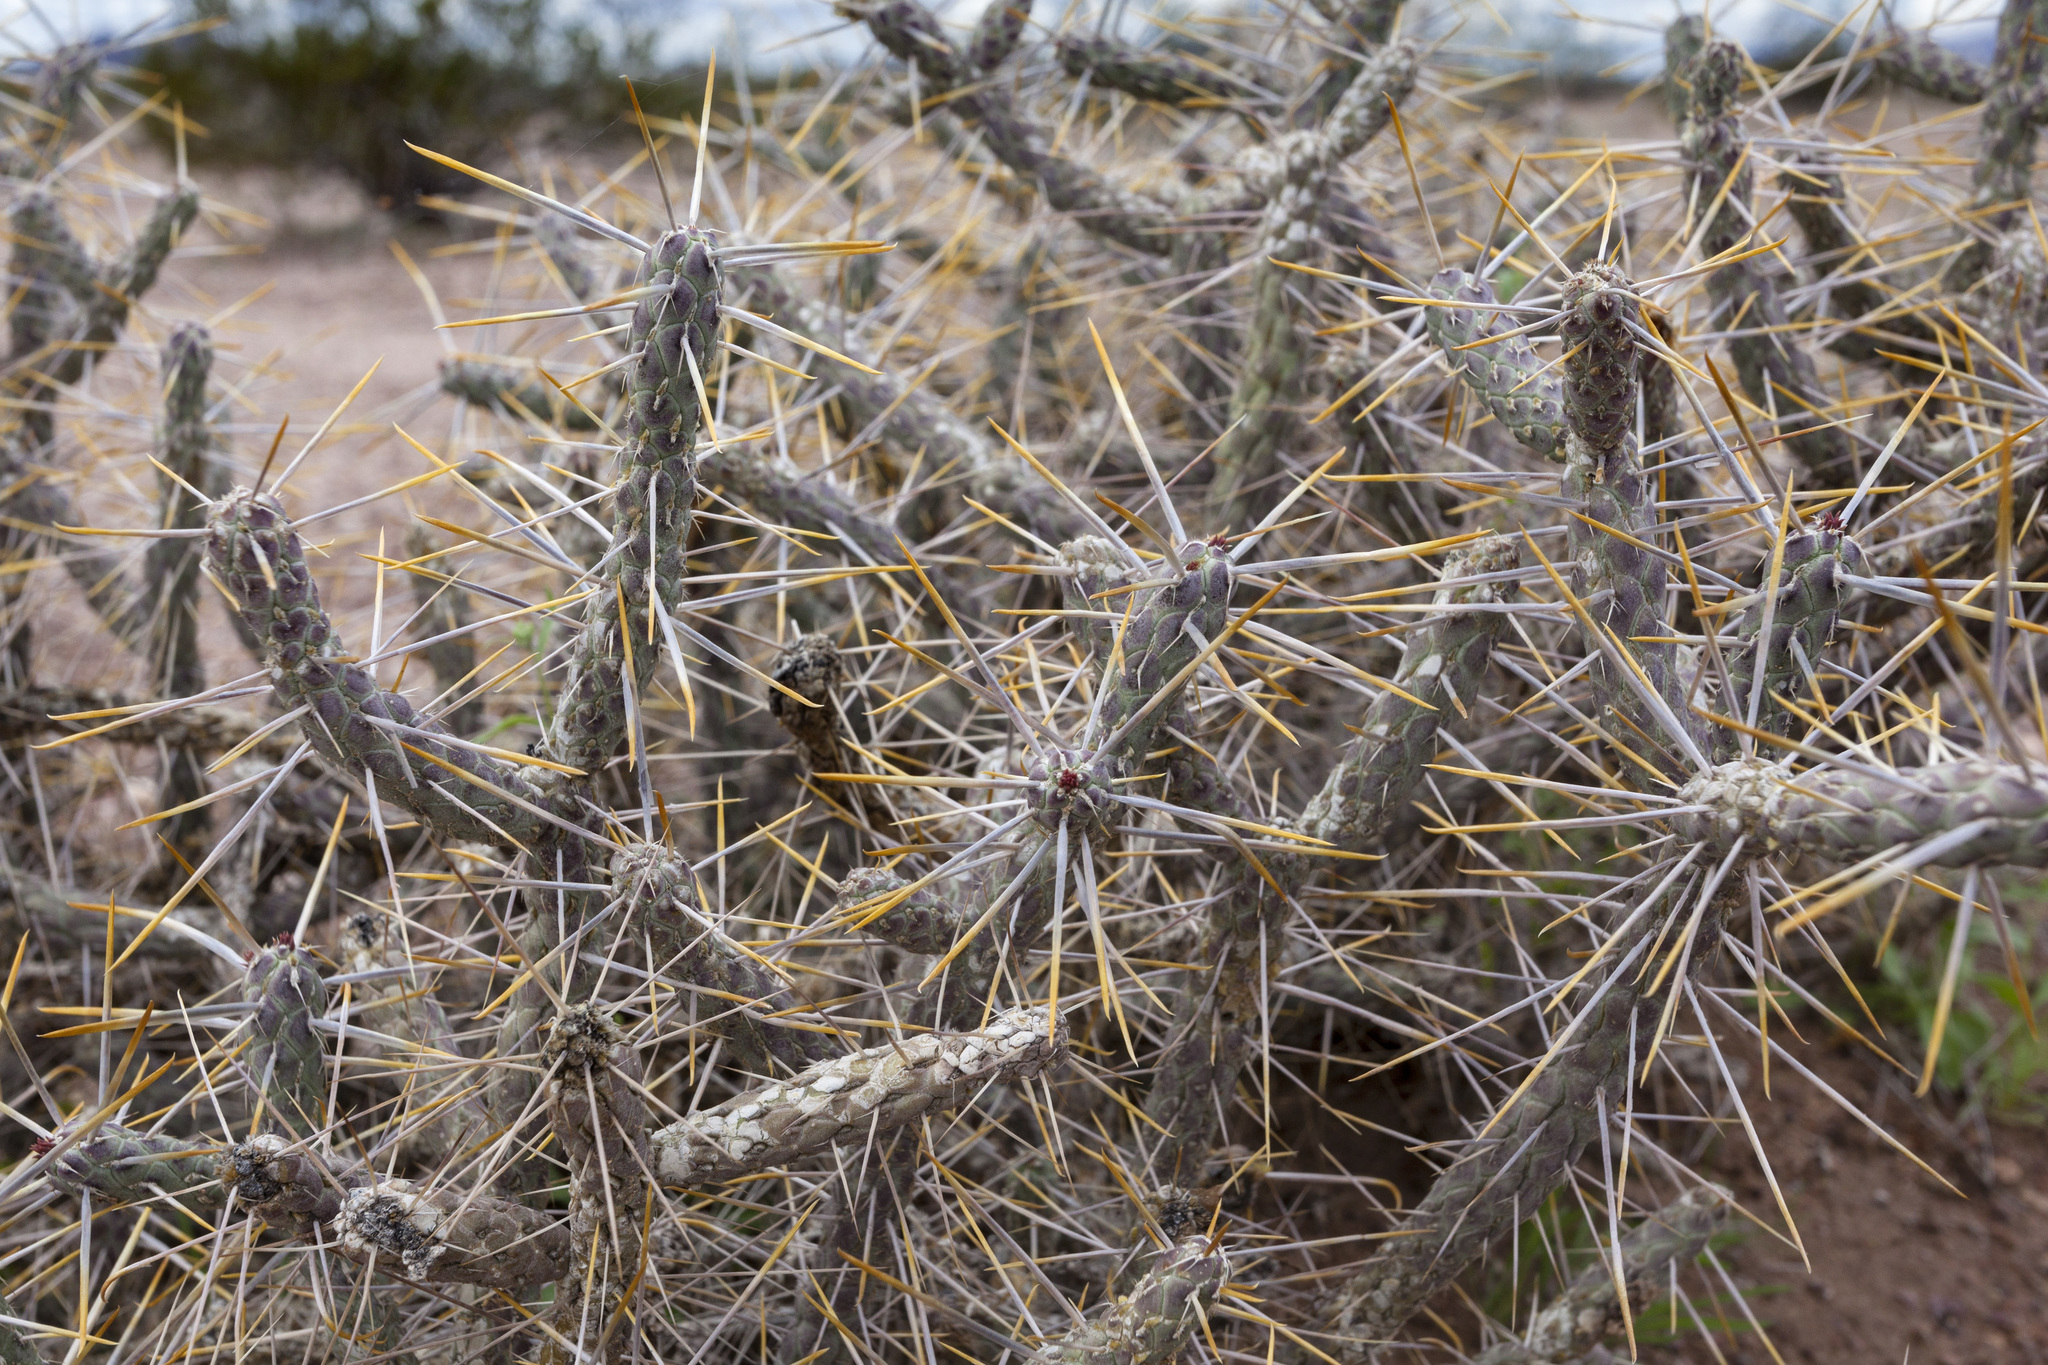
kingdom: Plantae
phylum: Tracheophyta
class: Magnoliopsida
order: Caryophyllales
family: Cactaceae
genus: Cylindropuntia
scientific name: Cylindropuntia ramosissima
